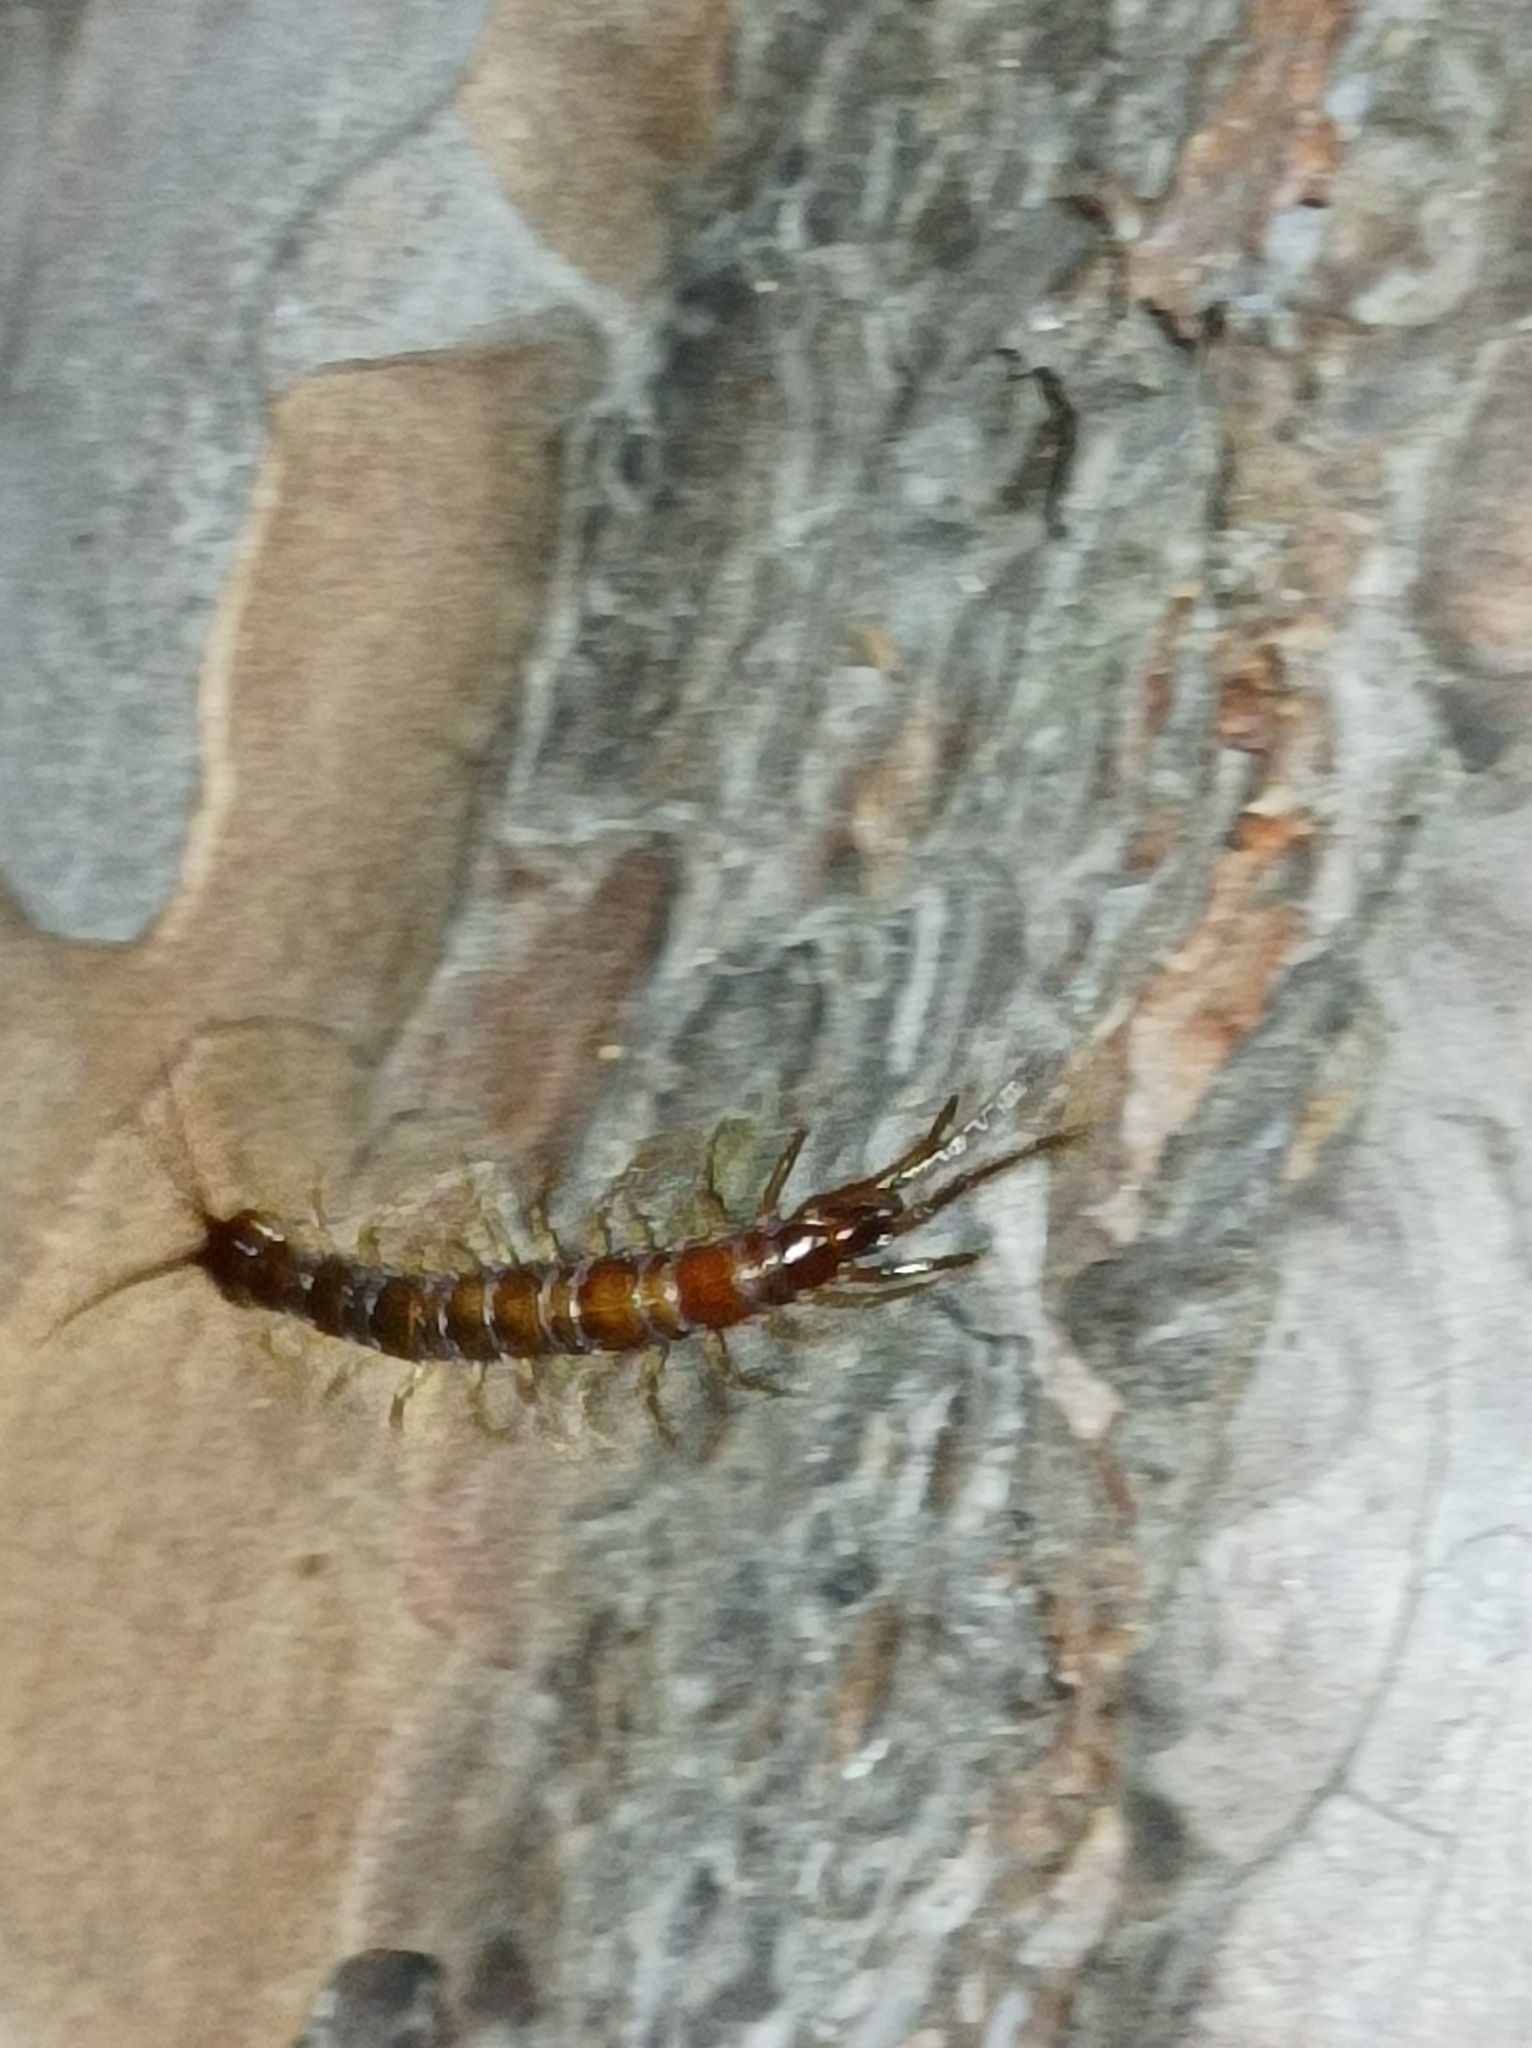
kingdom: Animalia
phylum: Arthropoda
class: Chilopoda
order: Lithobiomorpha
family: Lithobiidae
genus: Lithobius
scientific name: Lithobius forficatus
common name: Centipede
